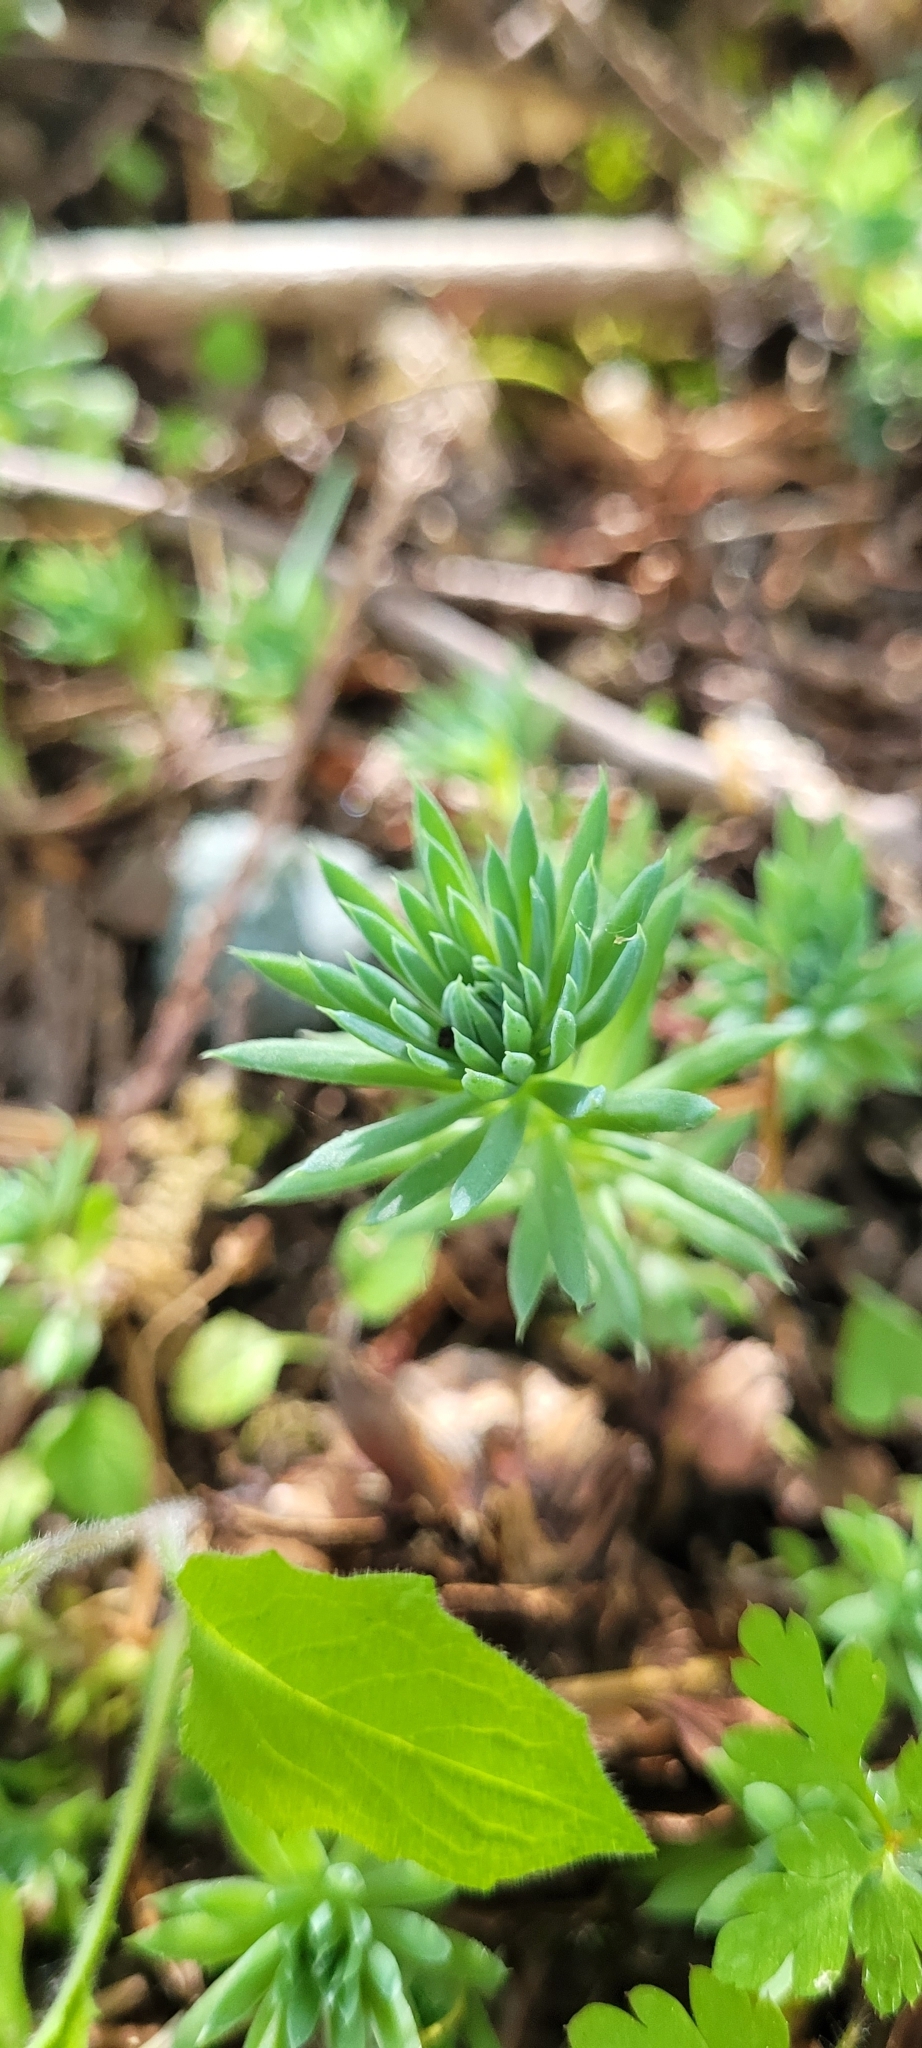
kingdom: Plantae
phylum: Tracheophyta
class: Magnoliopsida
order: Saxifragales
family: Crassulaceae
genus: Petrosedum
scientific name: Petrosedum forsterianum
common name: Forster's stonecrop
